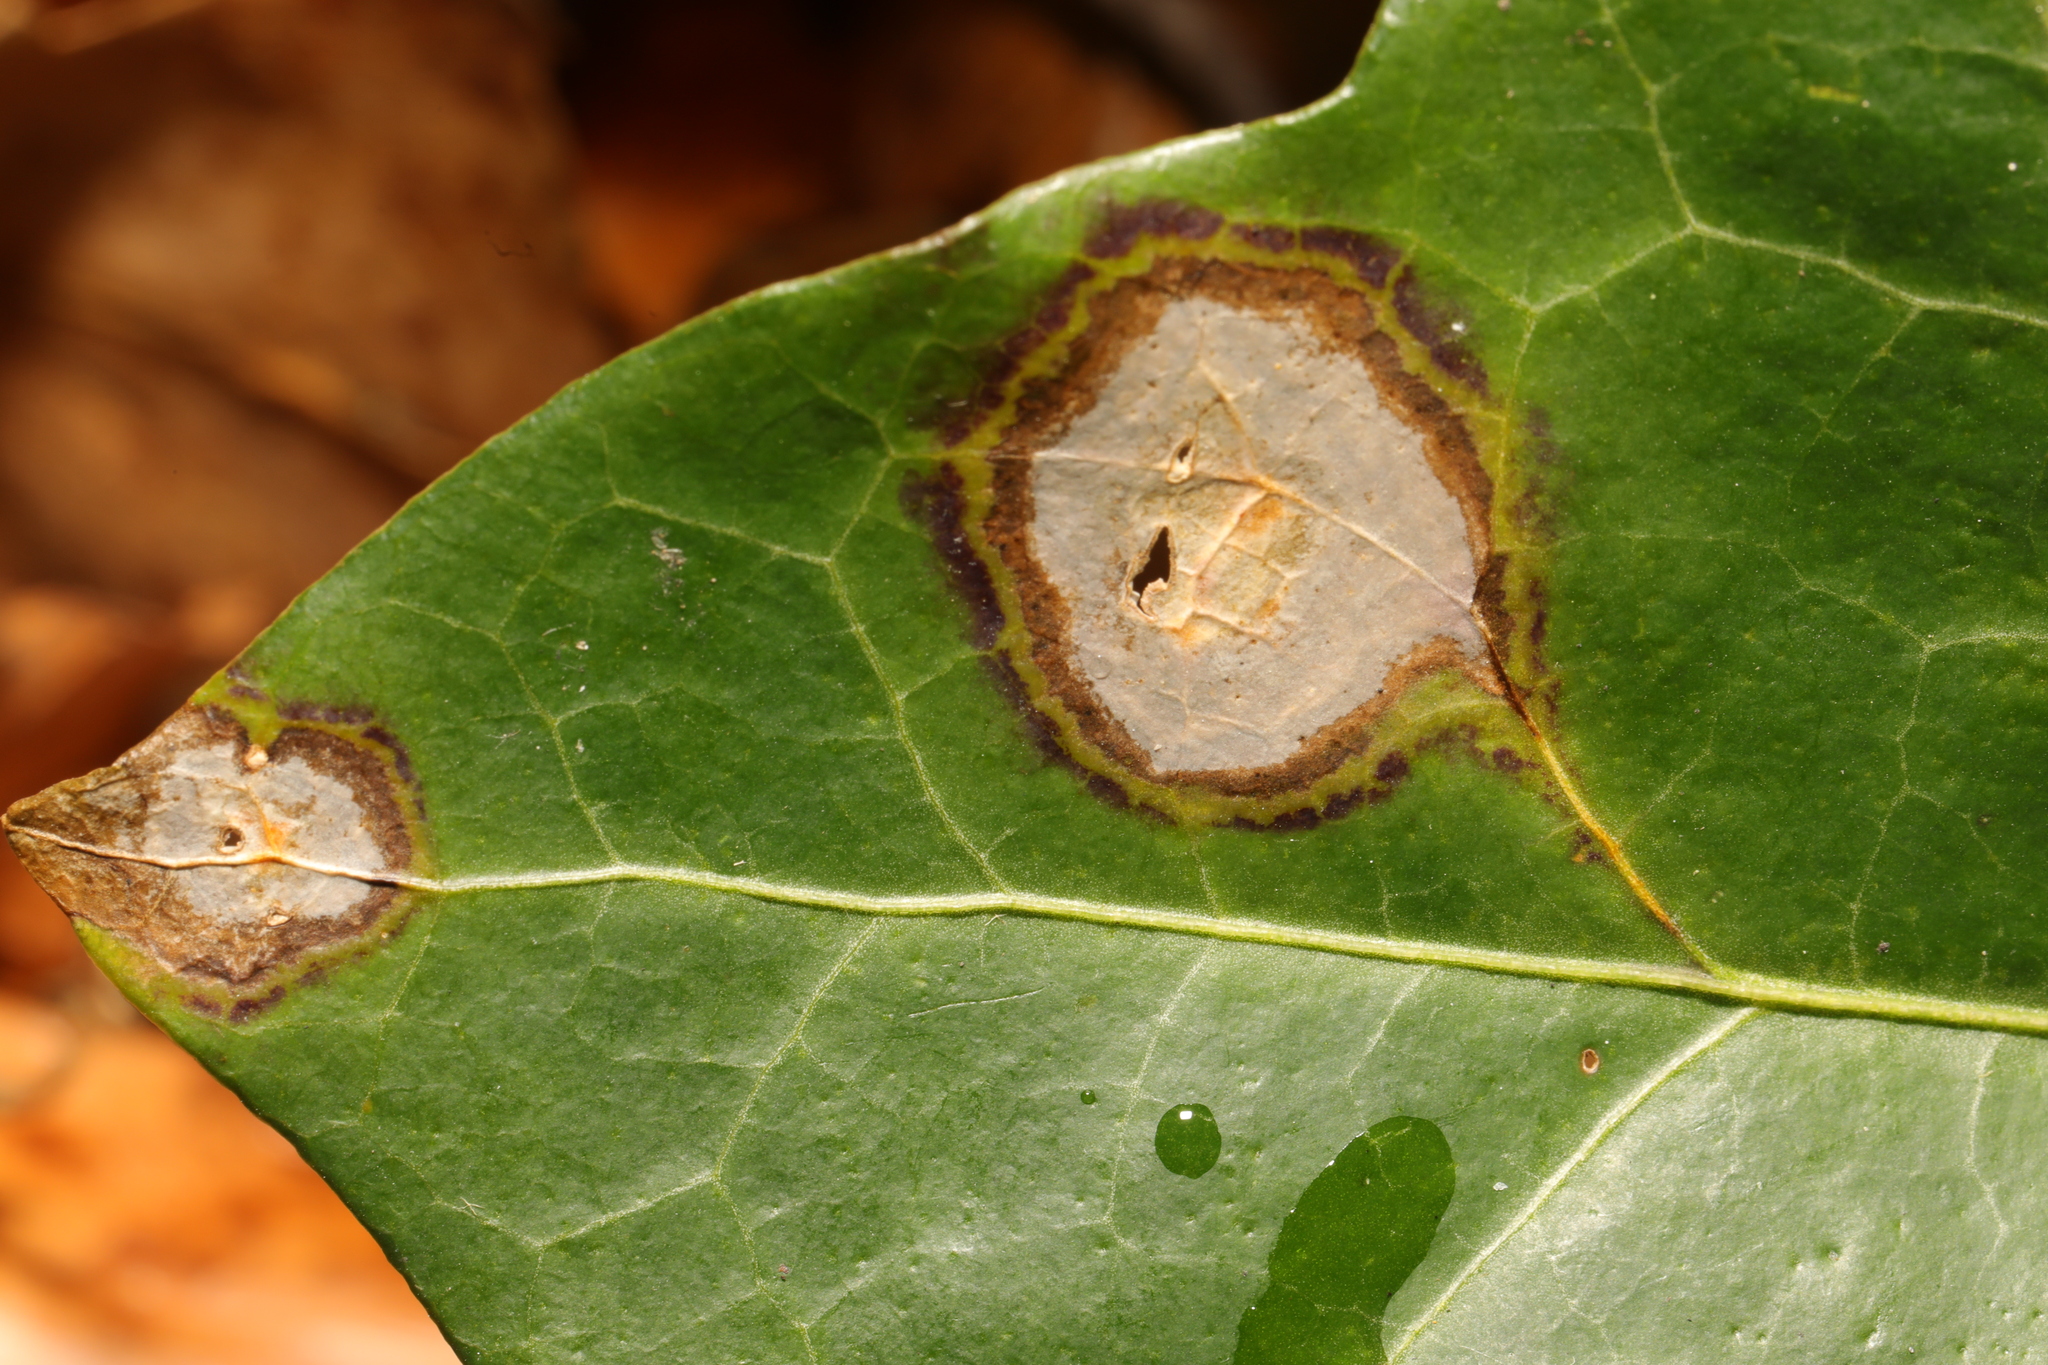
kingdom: Fungi
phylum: Ascomycota
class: Dothideomycetes
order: Pleosporales
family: Didymellaceae
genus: Boeremia
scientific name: Boeremia hedericola
